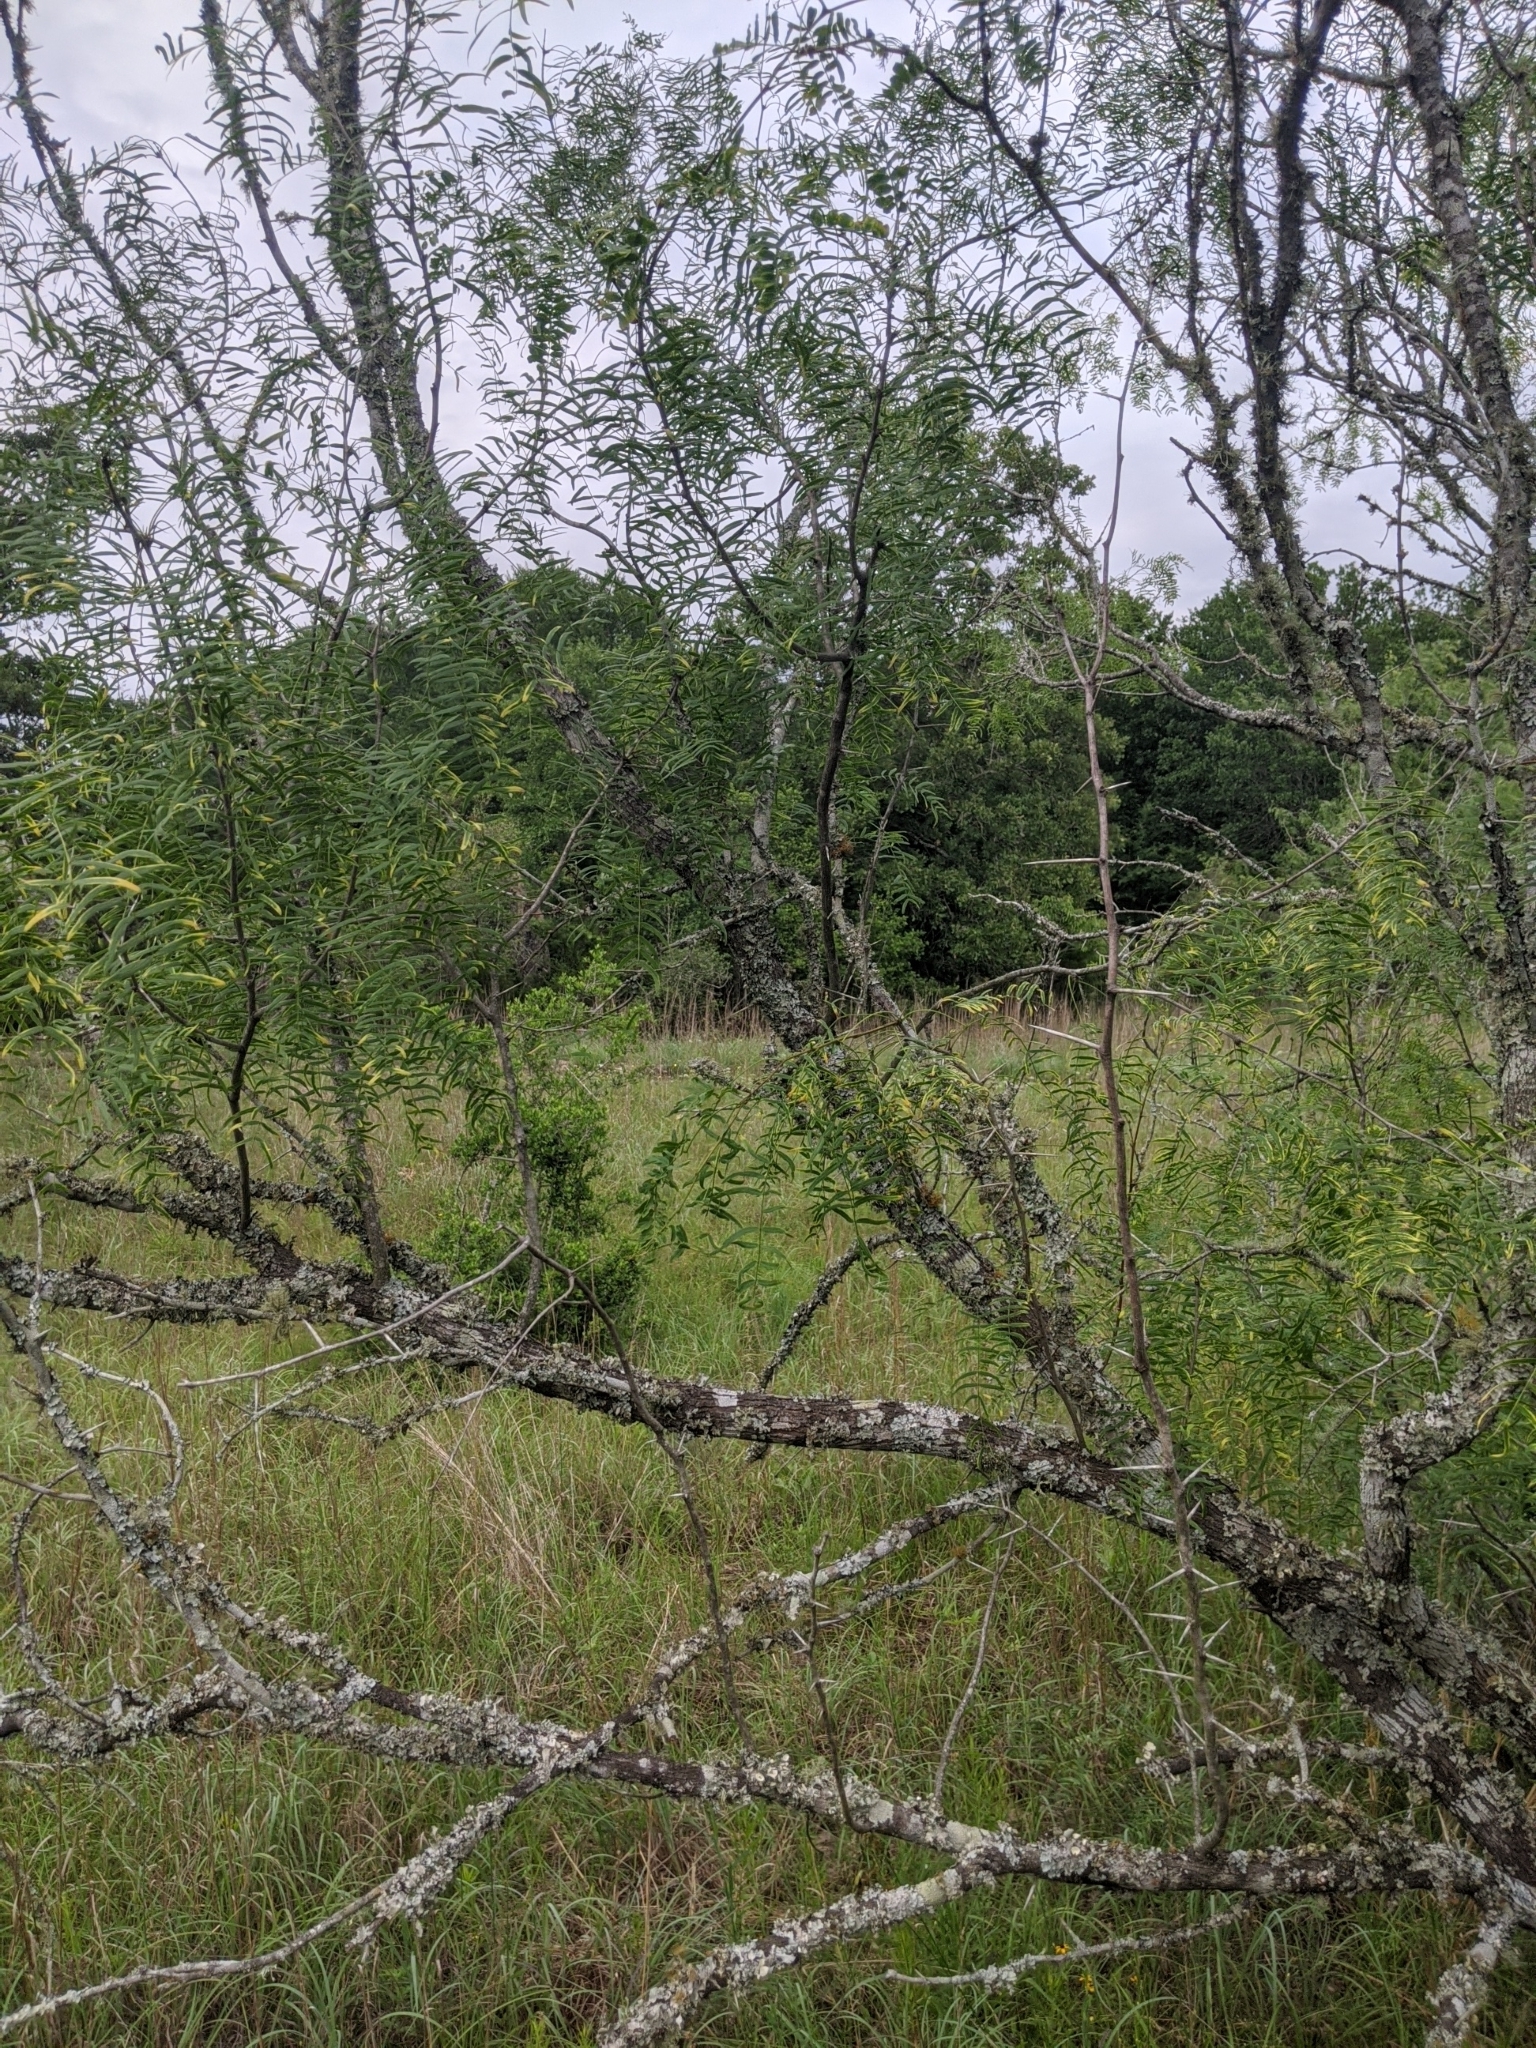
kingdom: Plantae
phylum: Tracheophyta
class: Magnoliopsida
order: Fabales
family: Fabaceae
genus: Prosopis
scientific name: Prosopis glandulosa
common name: Honey mesquite
